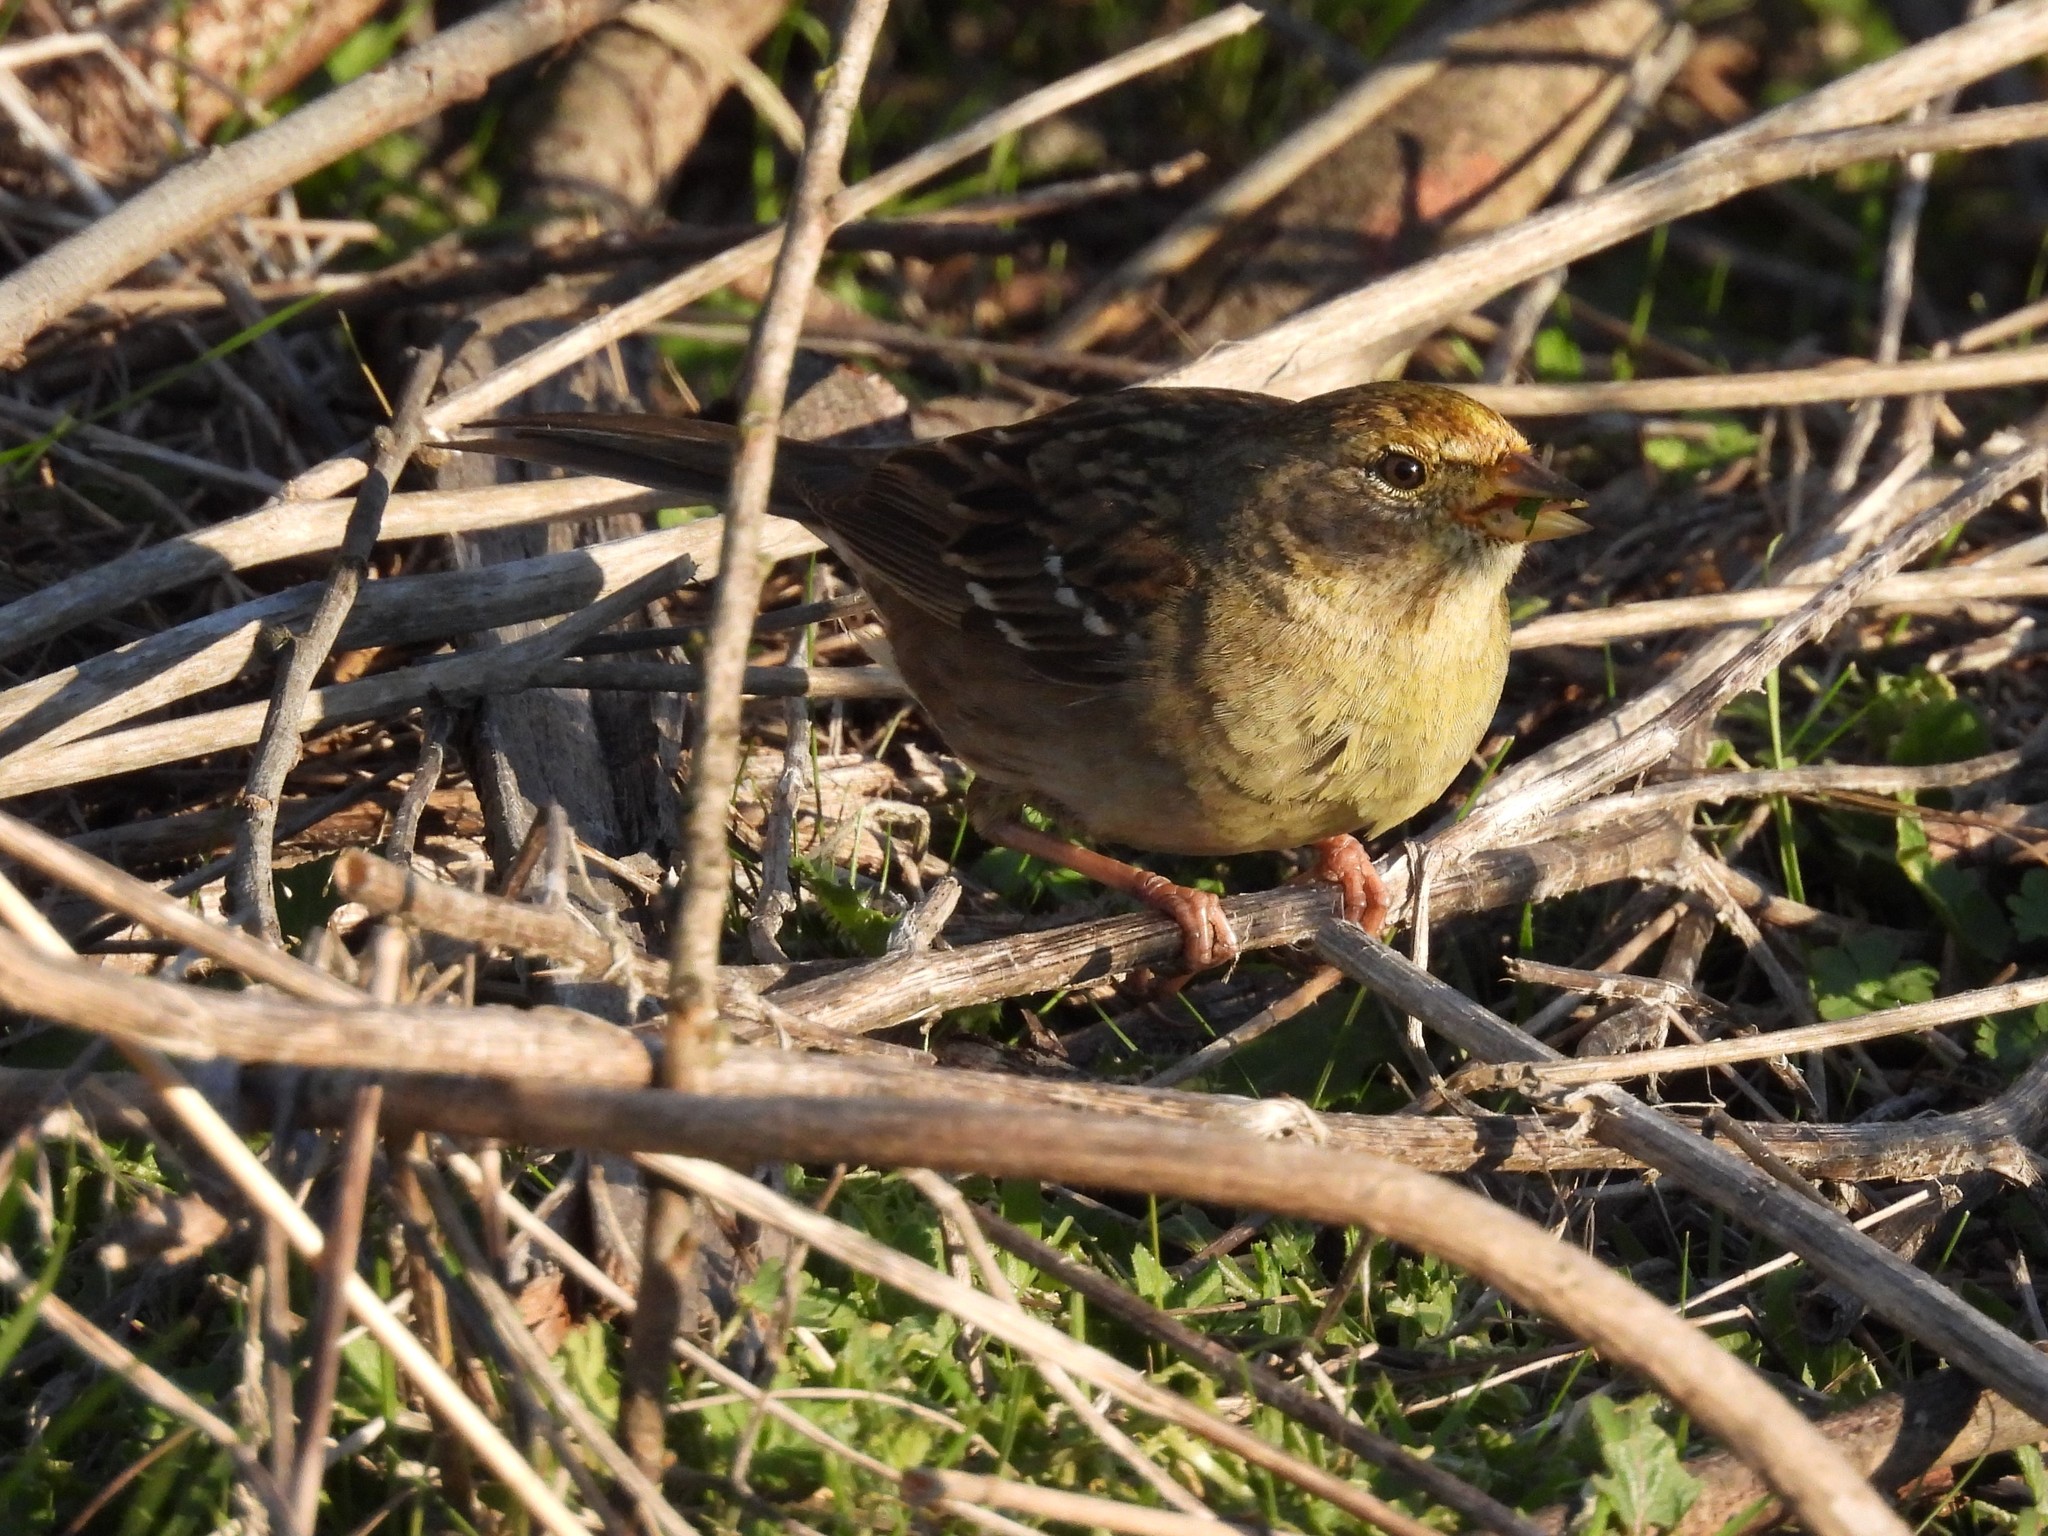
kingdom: Animalia
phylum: Chordata
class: Aves
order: Passeriformes
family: Passerellidae
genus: Zonotrichia
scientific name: Zonotrichia atricapilla
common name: Golden-crowned sparrow
